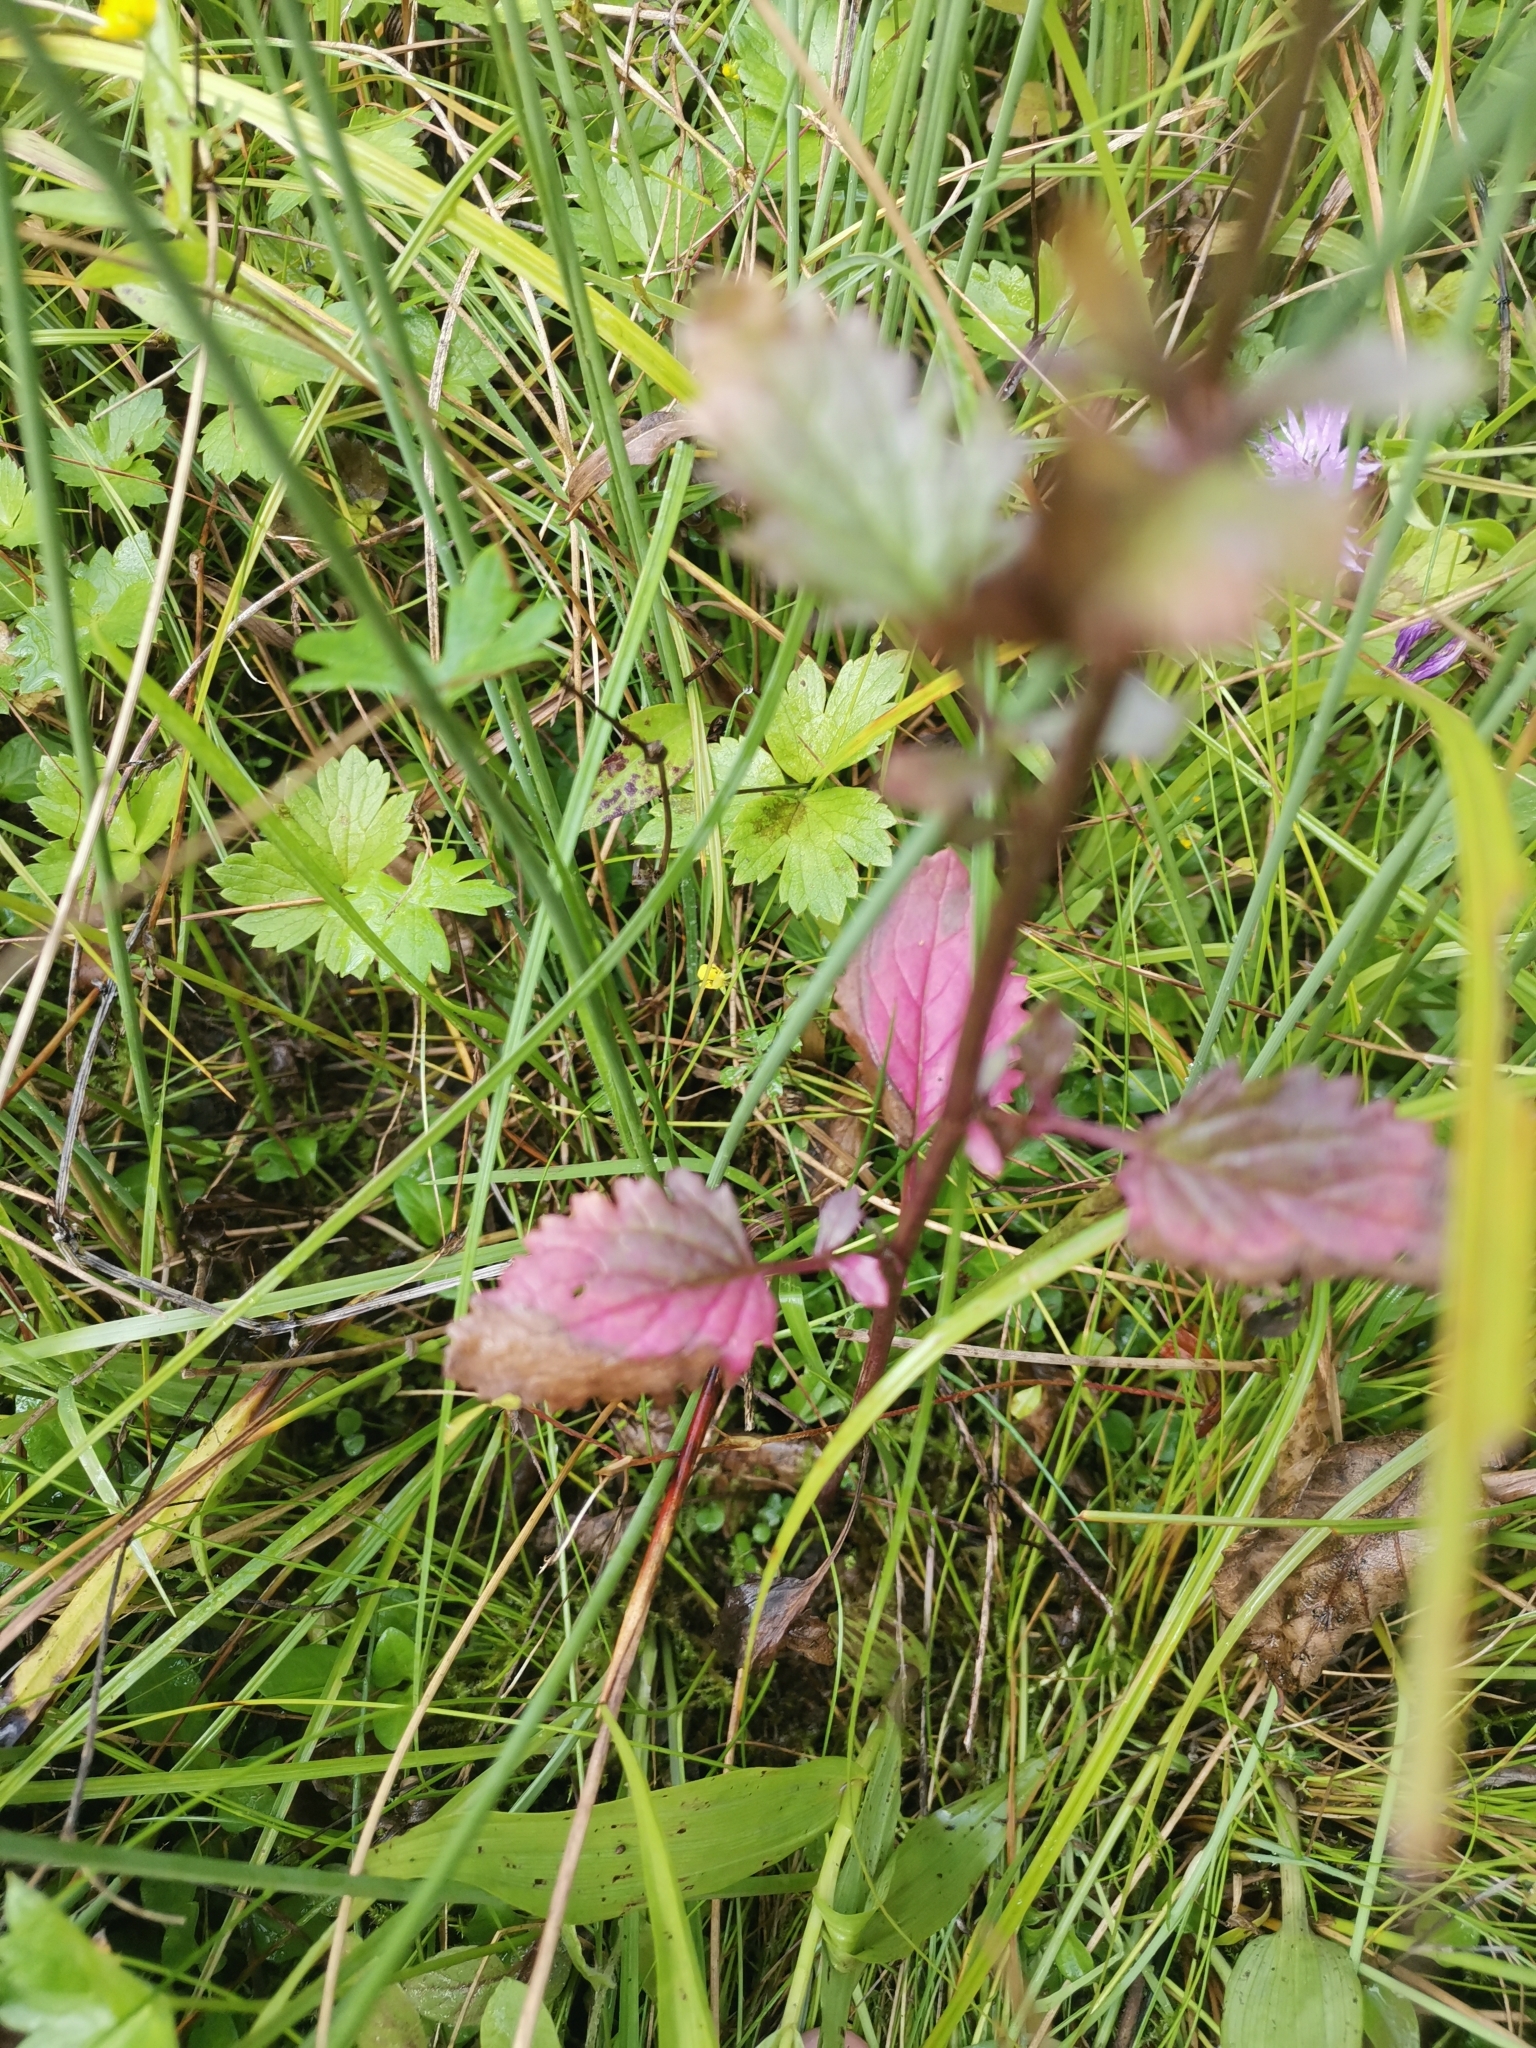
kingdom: Plantae
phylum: Tracheophyta
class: Magnoliopsida
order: Asterales
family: Asteraceae
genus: Jacobaea
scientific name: Jacobaea erratica
